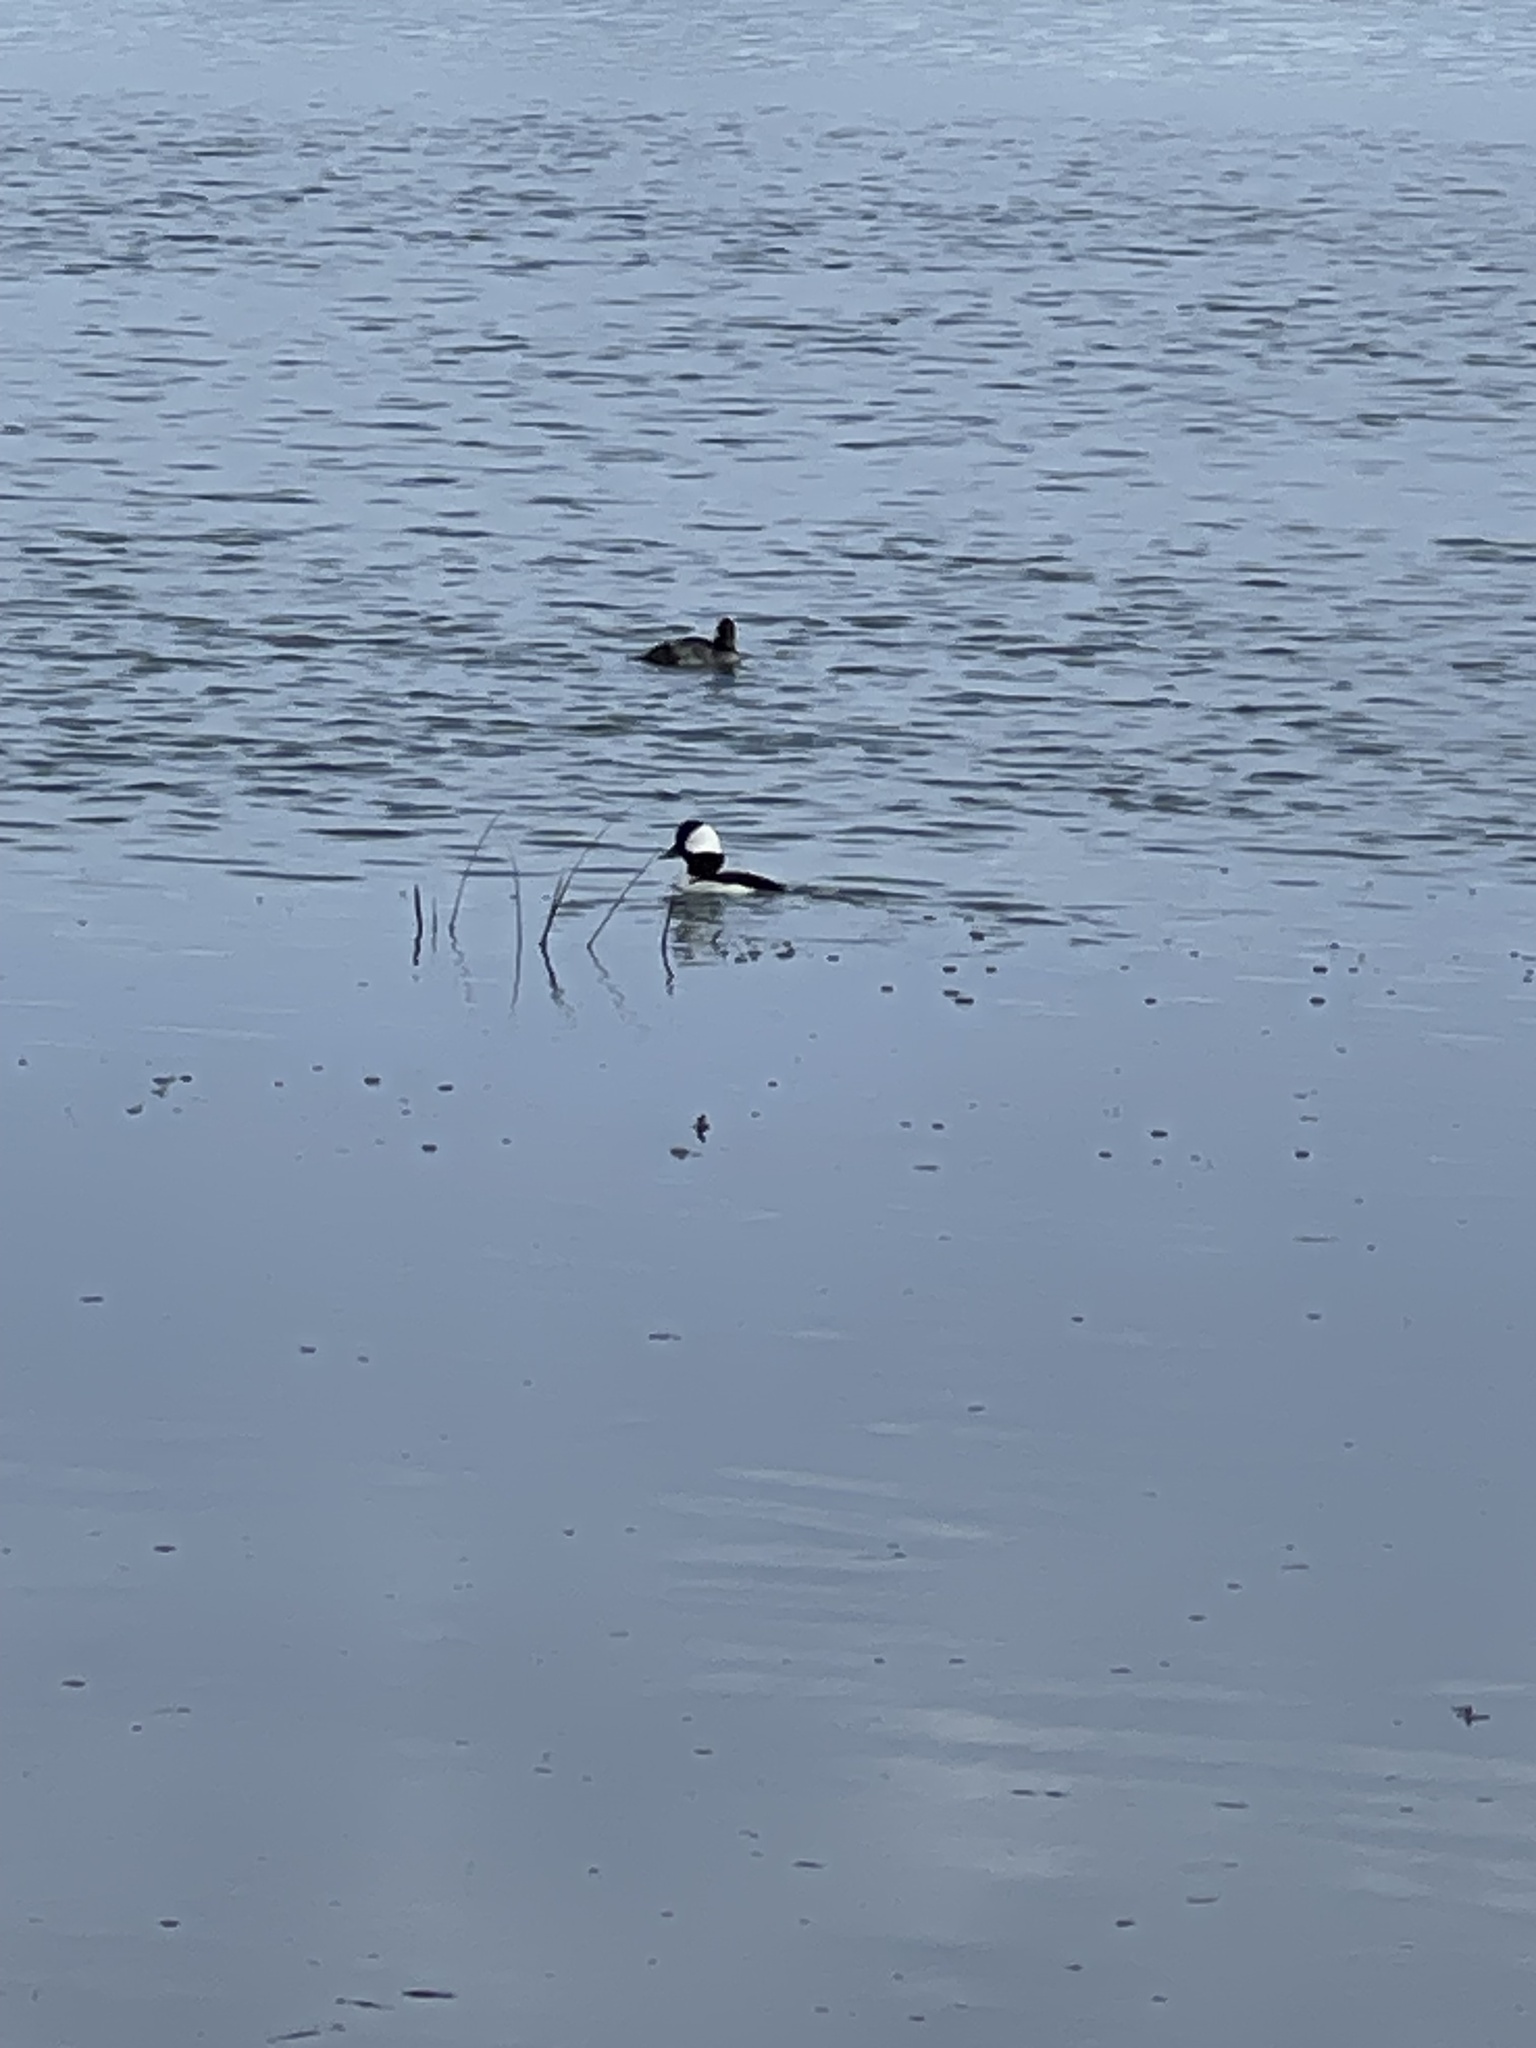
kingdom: Animalia
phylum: Chordata
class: Aves
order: Anseriformes
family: Anatidae
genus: Bucephala
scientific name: Bucephala albeola
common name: Bufflehead
